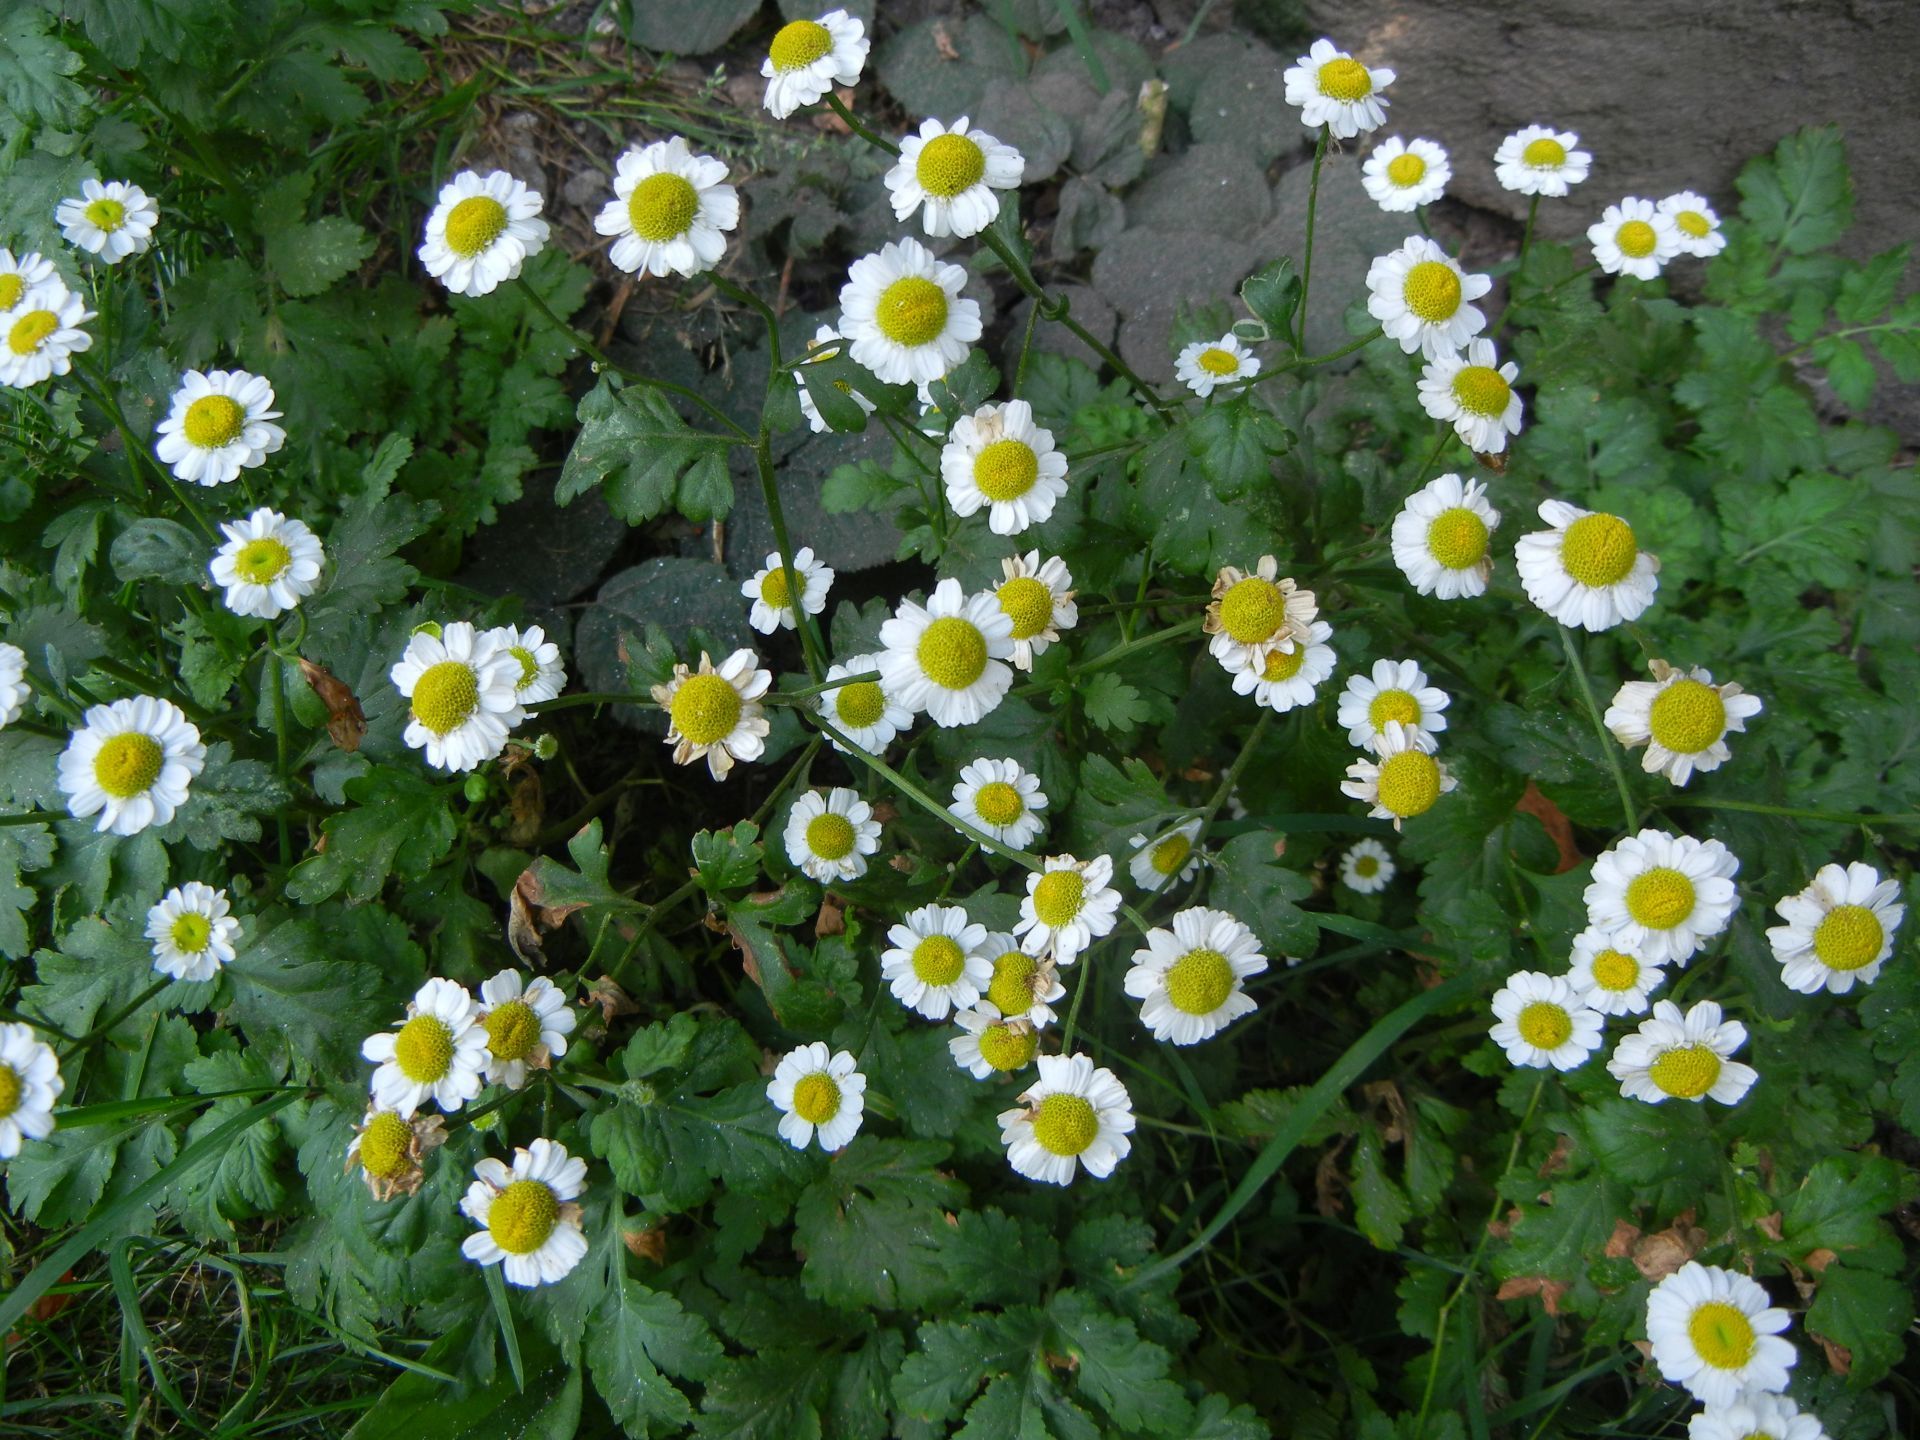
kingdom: Plantae
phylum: Tracheophyta
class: Magnoliopsida
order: Asterales
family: Asteraceae
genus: Tanacetum
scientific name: Tanacetum parthenium
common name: Feverfew
